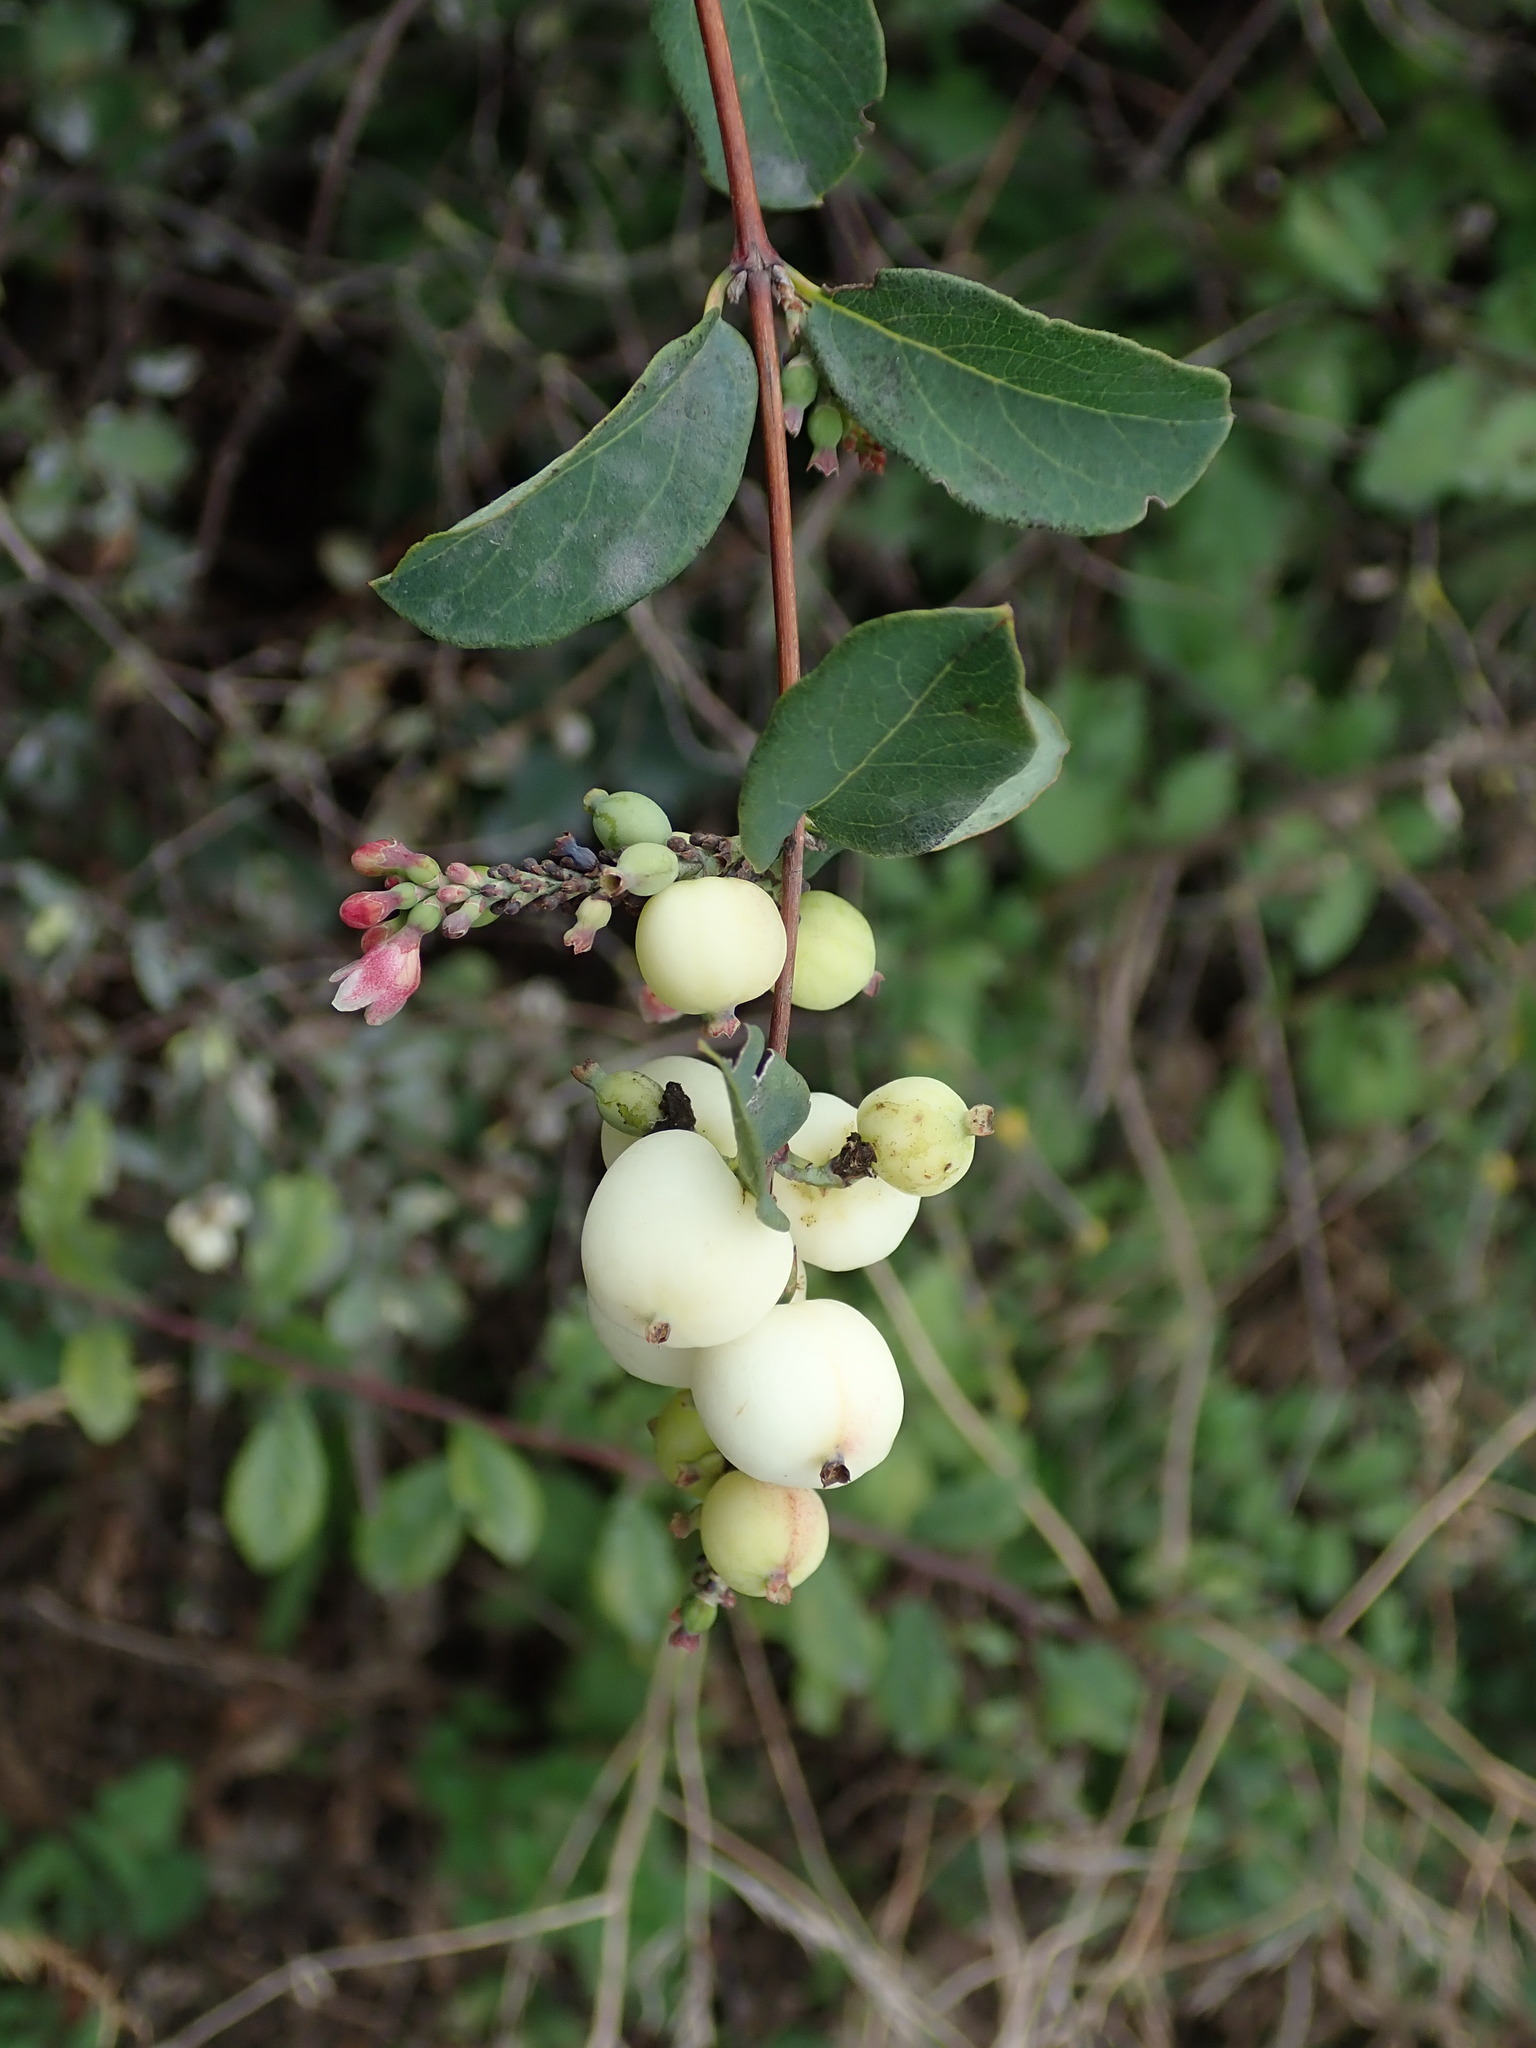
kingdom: Plantae
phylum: Tracheophyta
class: Magnoliopsida
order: Dipsacales
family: Caprifoliaceae
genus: Symphoricarpos
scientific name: Symphoricarpos albus
